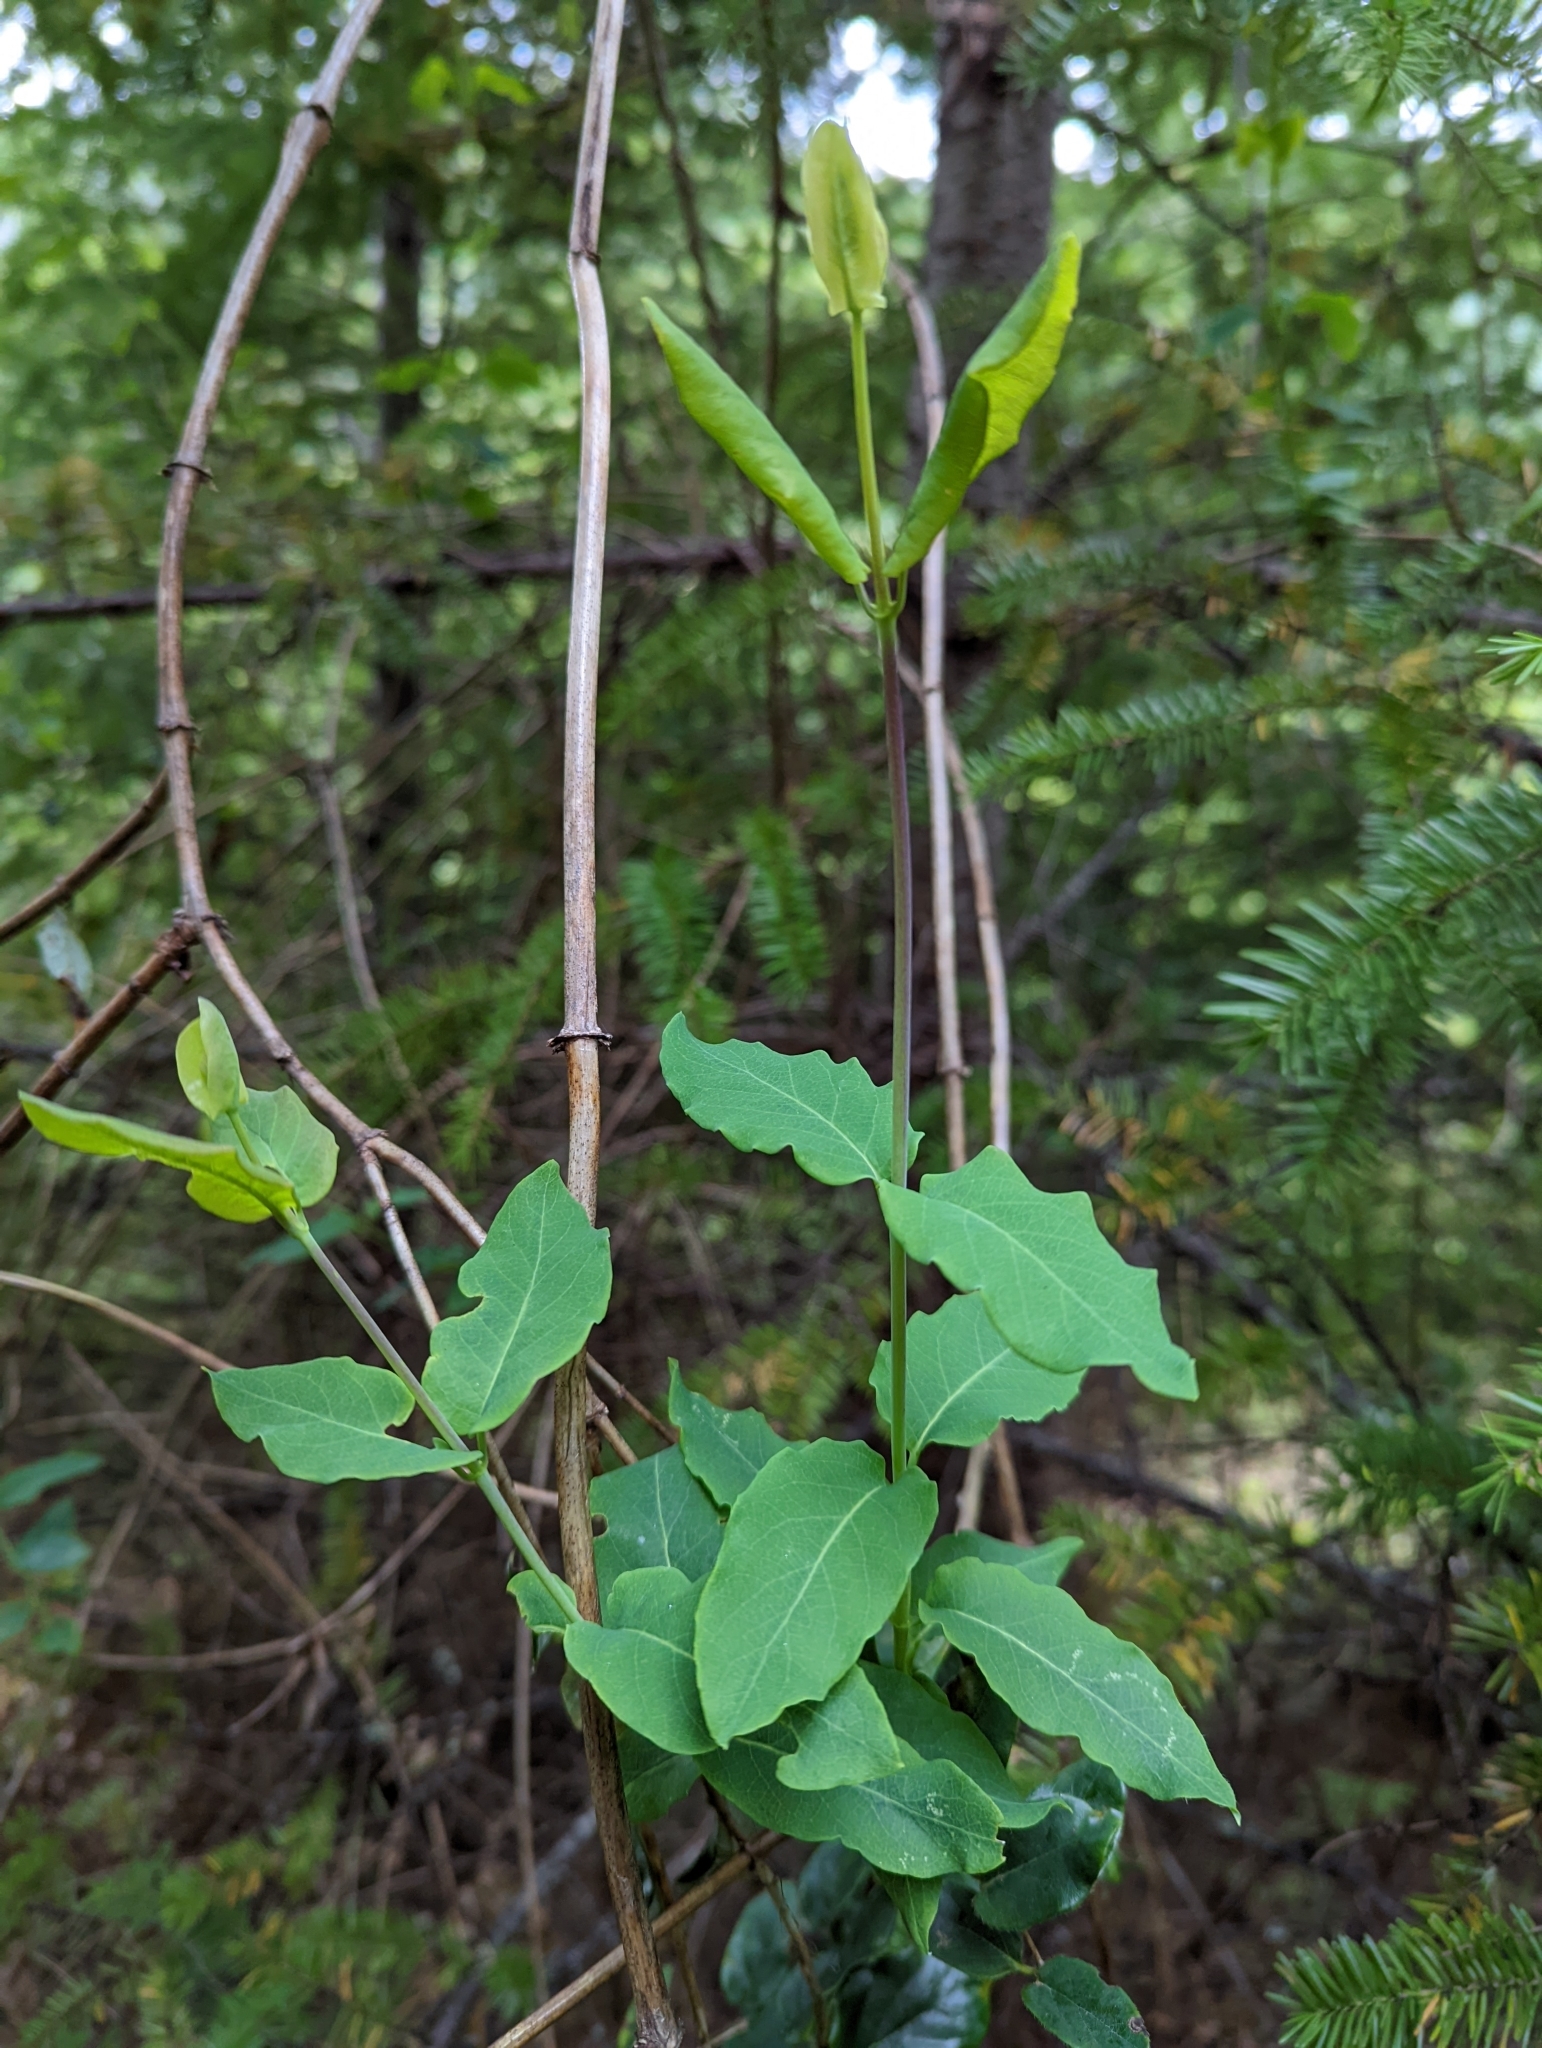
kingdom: Plantae
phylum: Tracheophyta
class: Magnoliopsida
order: Dipsacales
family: Caprifoliaceae
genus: Lonicera
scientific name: Lonicera hispidula
